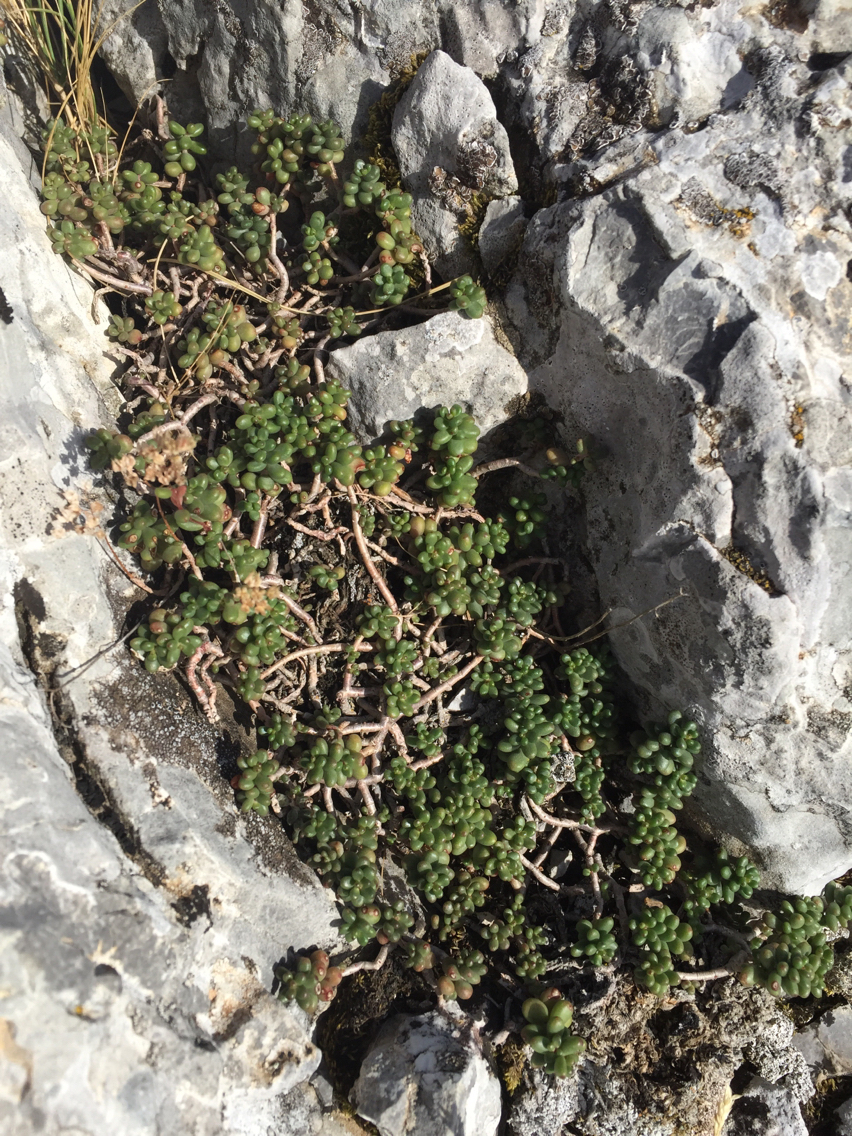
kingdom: Plantae
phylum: Tracheophyta
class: Magnoliopsida
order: Saxifragales
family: Crassulaceae
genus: Sedum
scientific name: Sedum album
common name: White stonecrop
